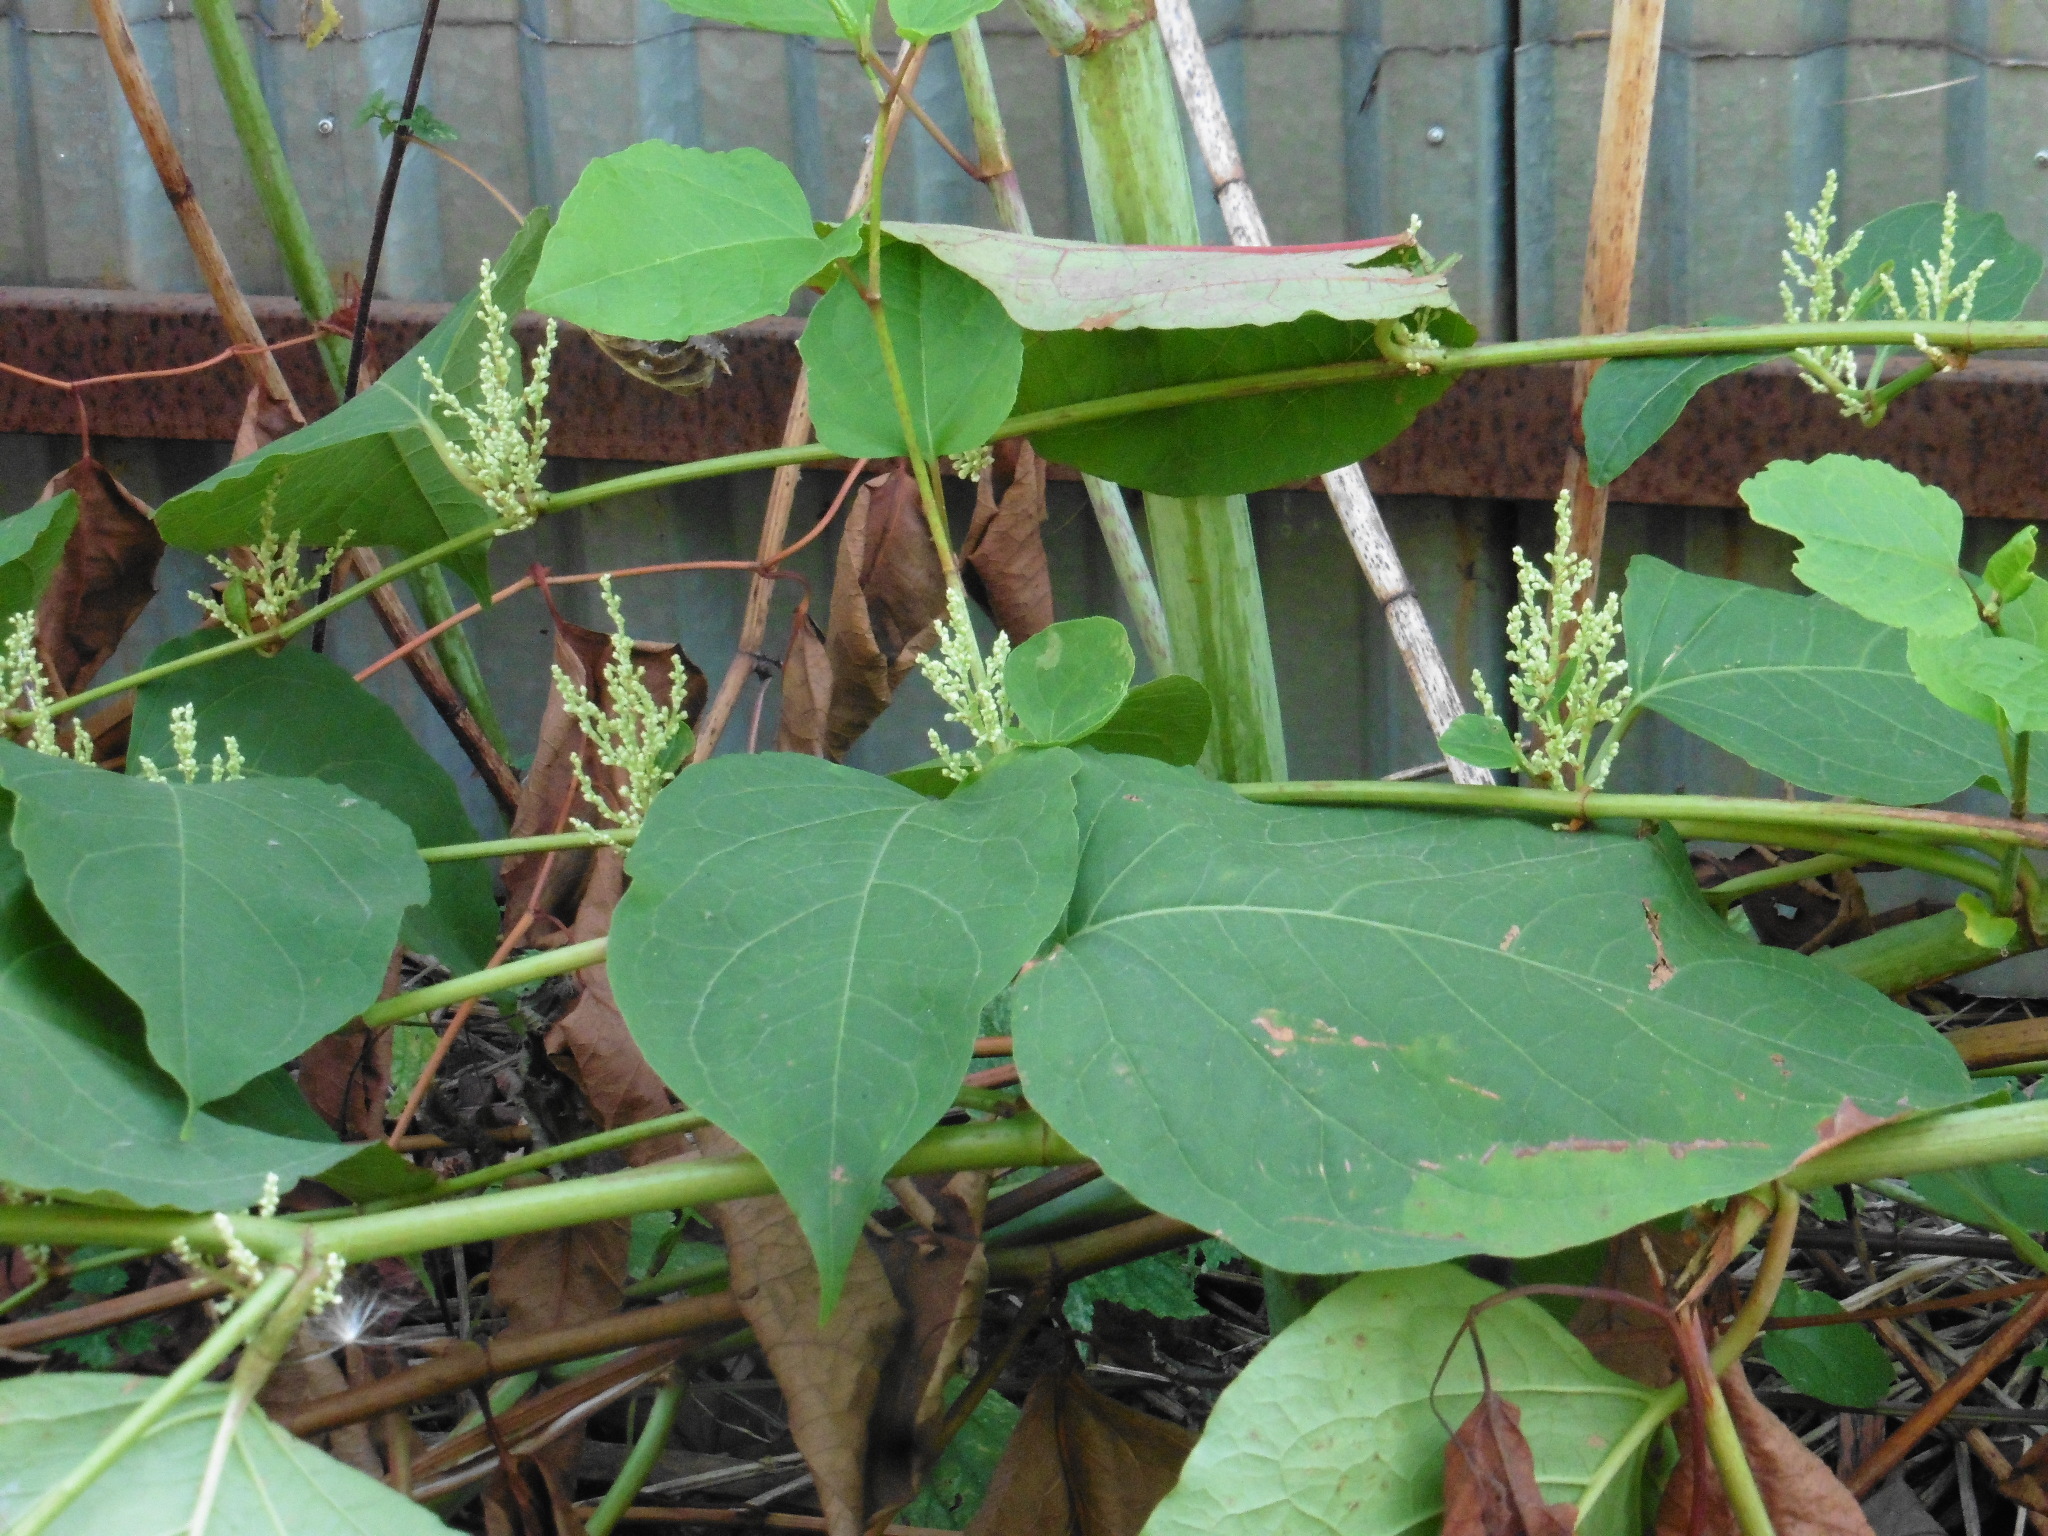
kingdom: Plantae
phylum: Tracheophyta
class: Magnoliopsida
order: Caryophyllales
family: Polygonaceae
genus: Reynoutria
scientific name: Reynoutria bohemica
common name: Bohemian knotweed
